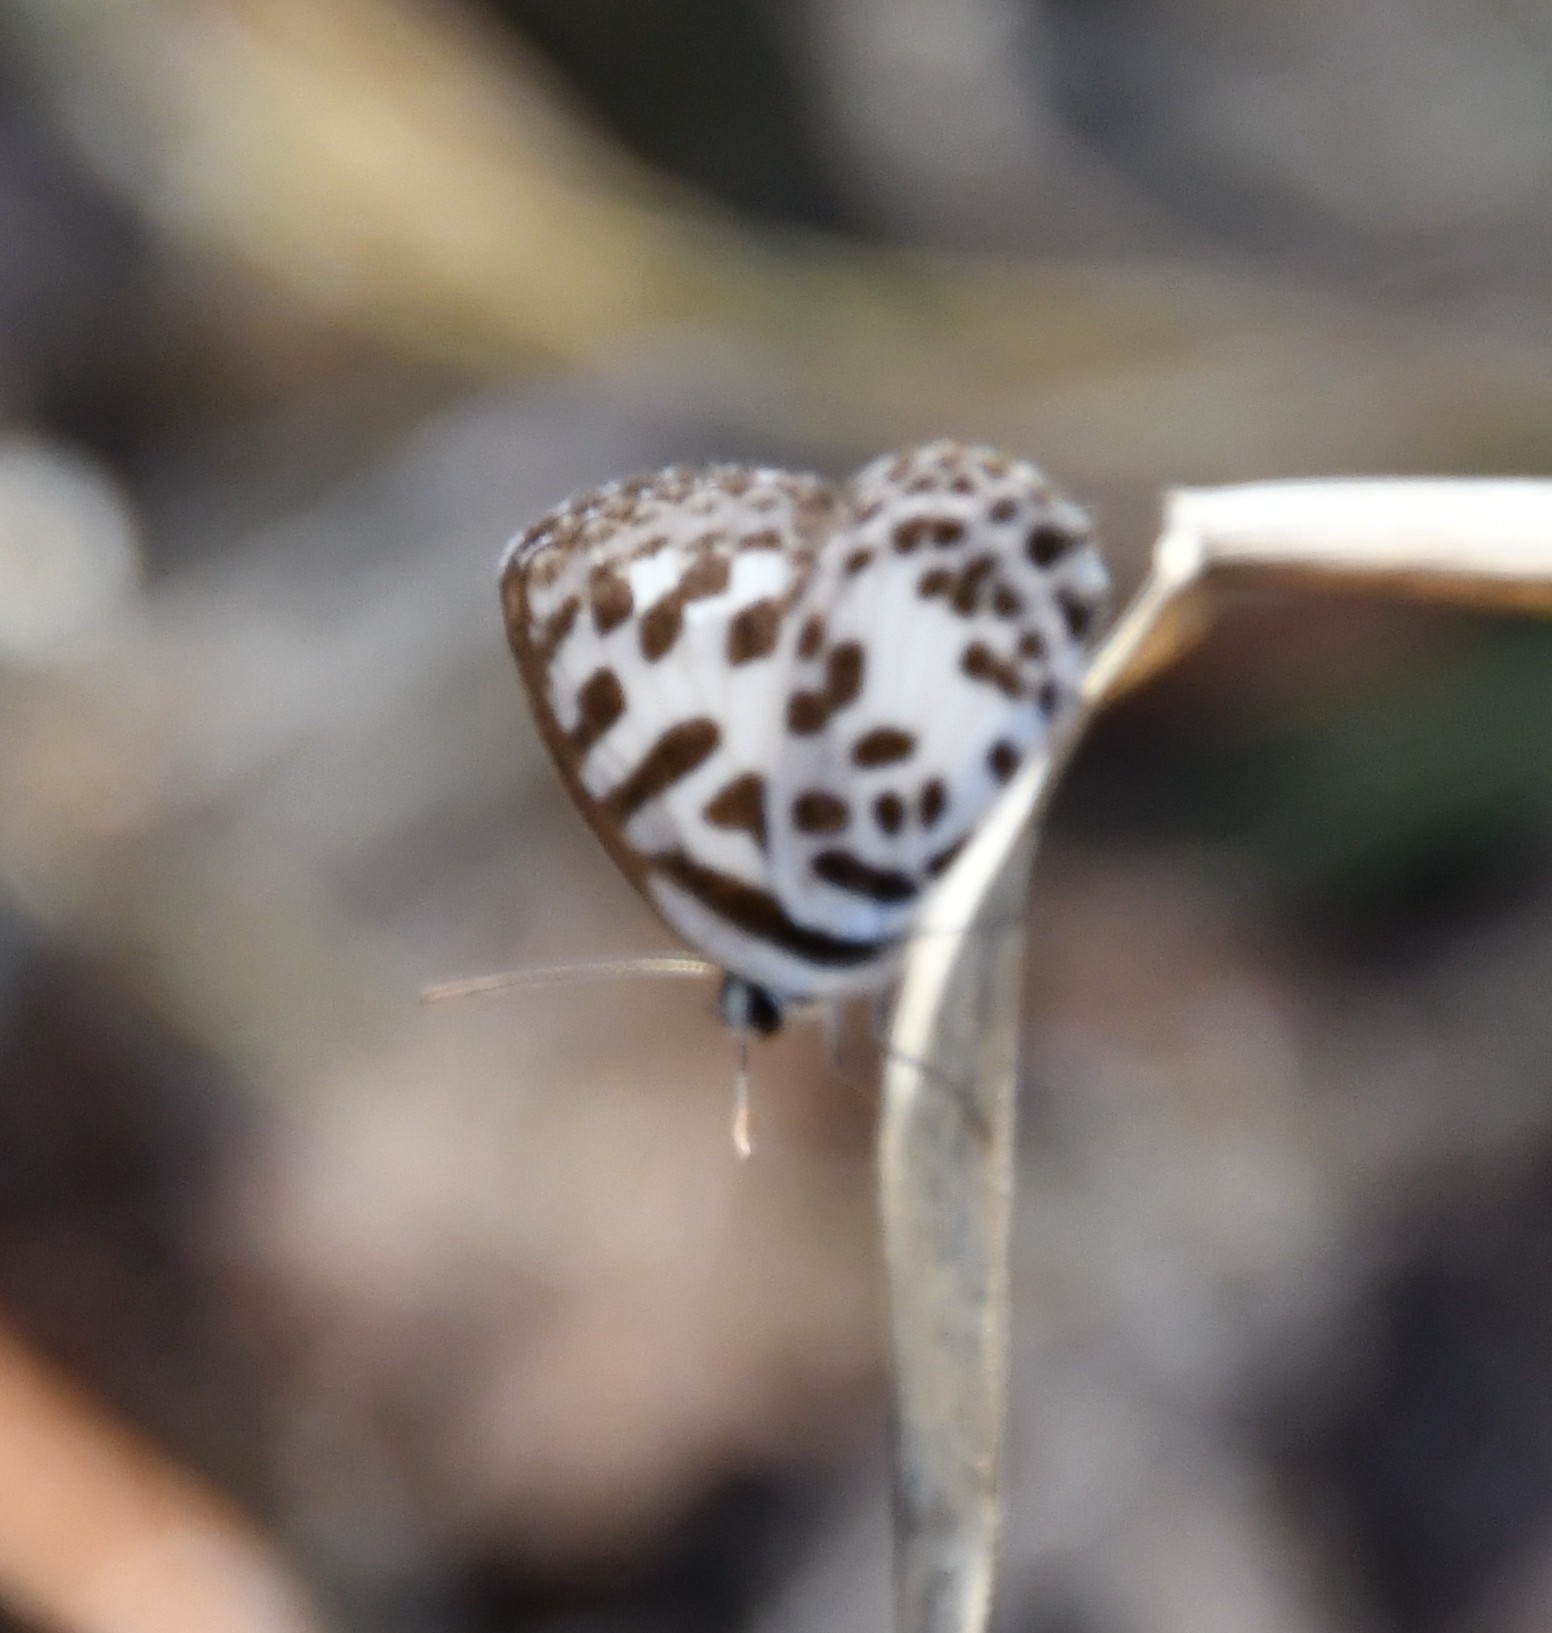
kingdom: Animalia
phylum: Arthropoda
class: Insecta
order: Lepidoptera
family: Lycaenidae
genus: Castalius
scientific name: Castalius rosimon
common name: Common pierrot
